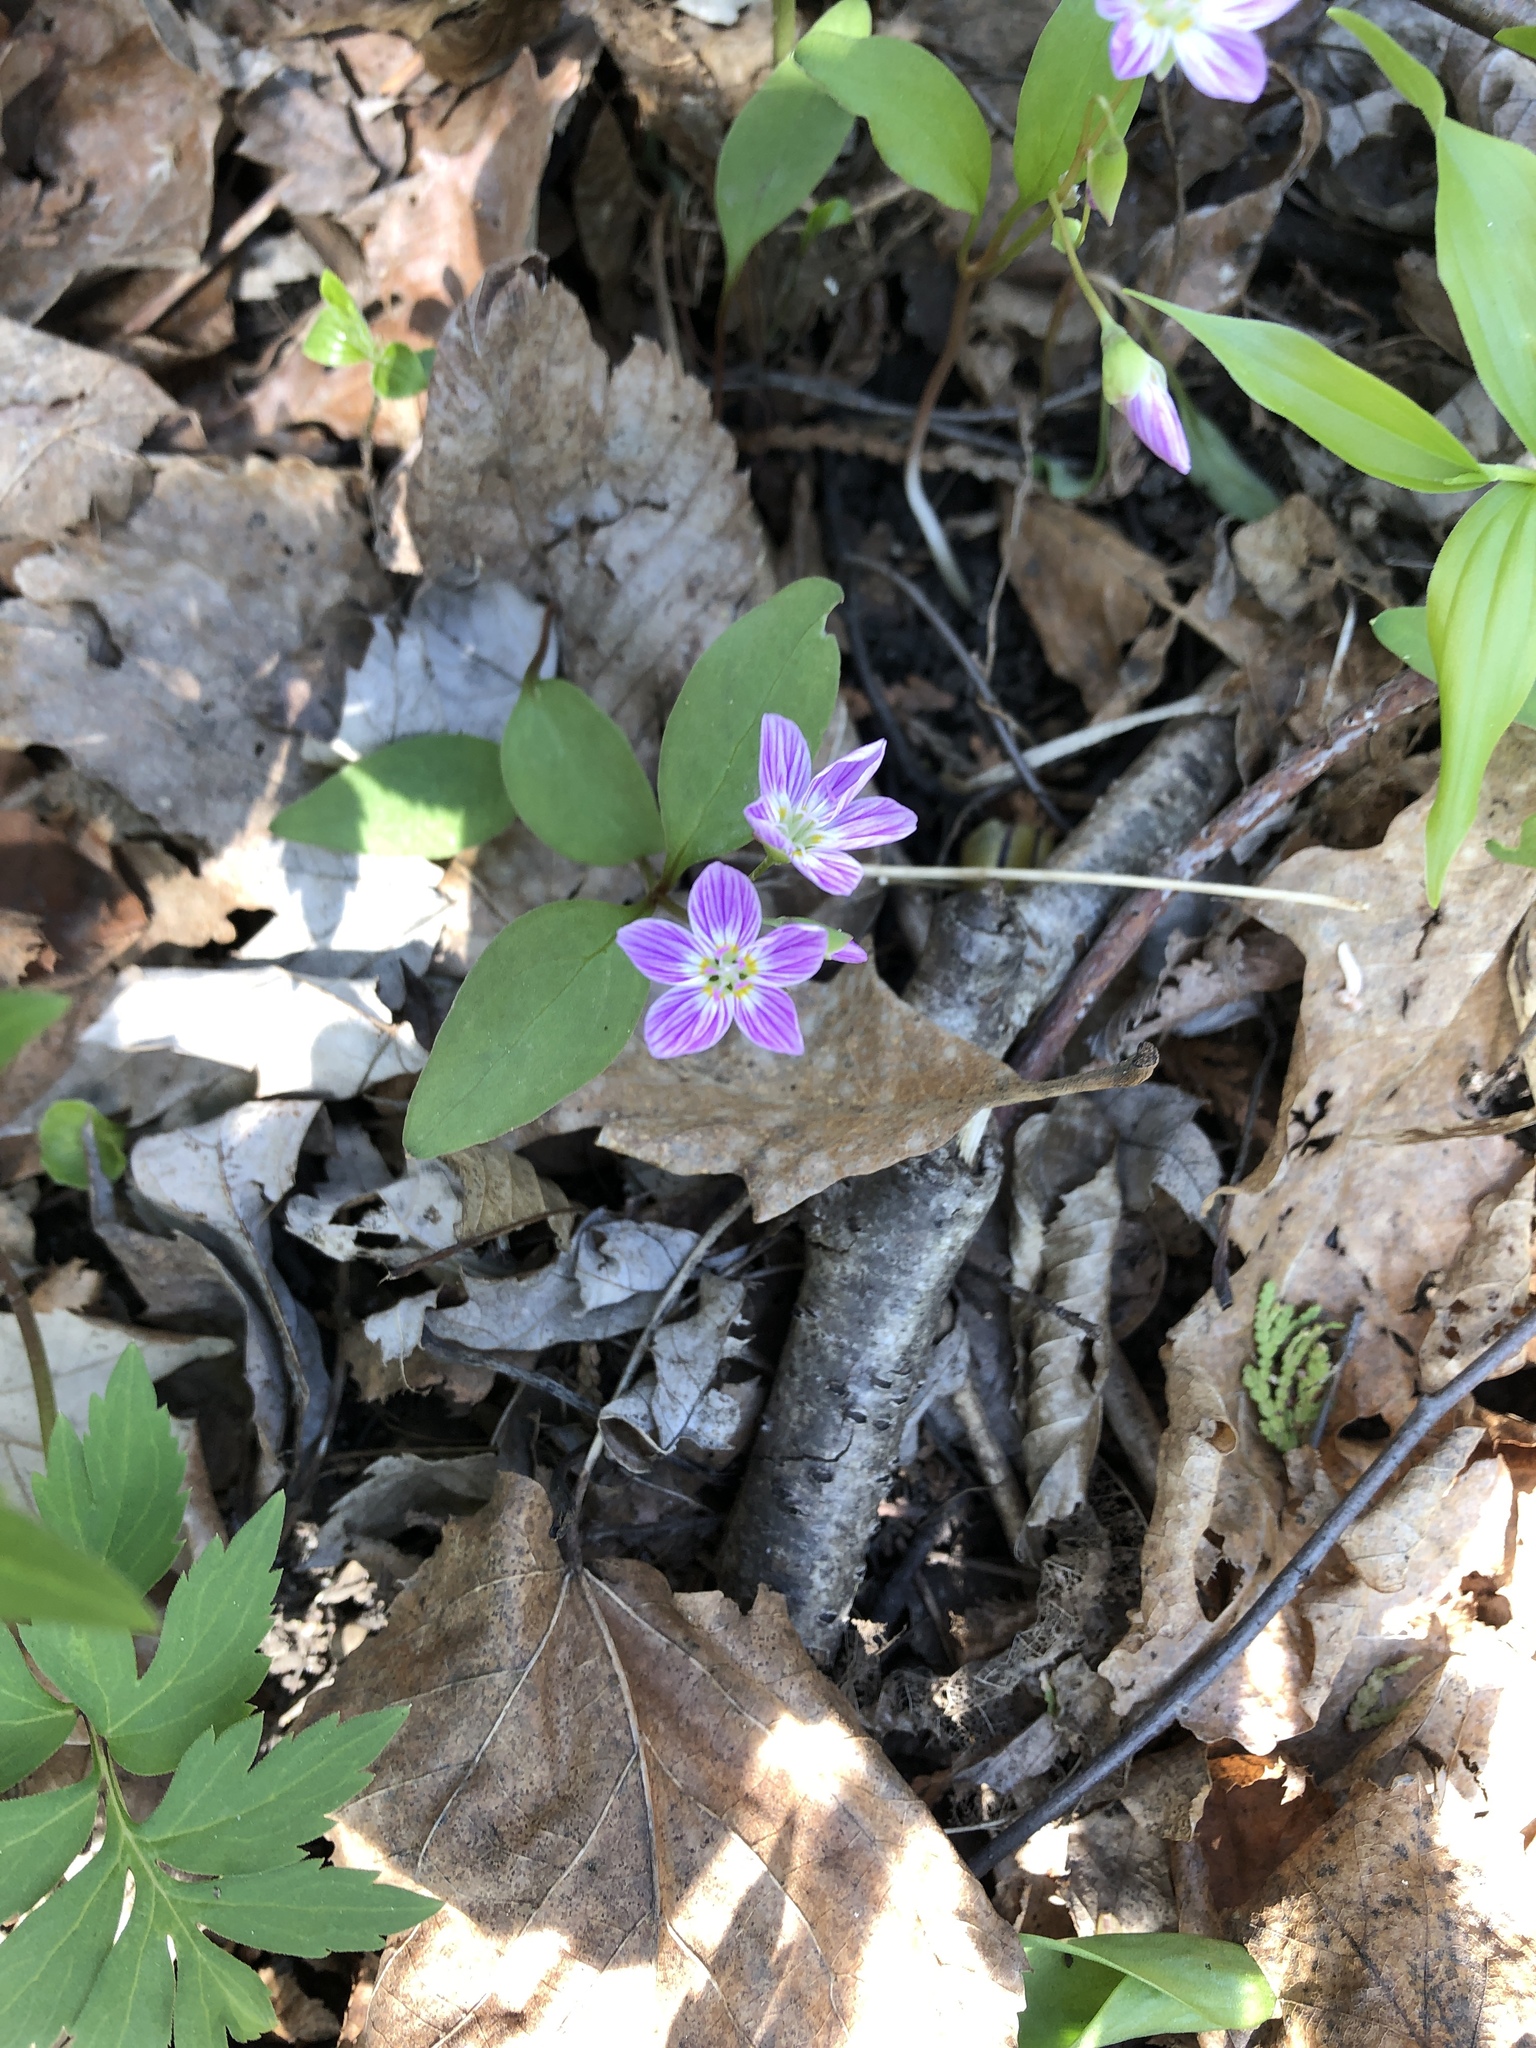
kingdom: Plantae
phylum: Tracheophyta
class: Magnoliopsida
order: Caryophyllales
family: Montiaceae
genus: Claytonia
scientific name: Claytonia caroliniana
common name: Carolina spring beauty
